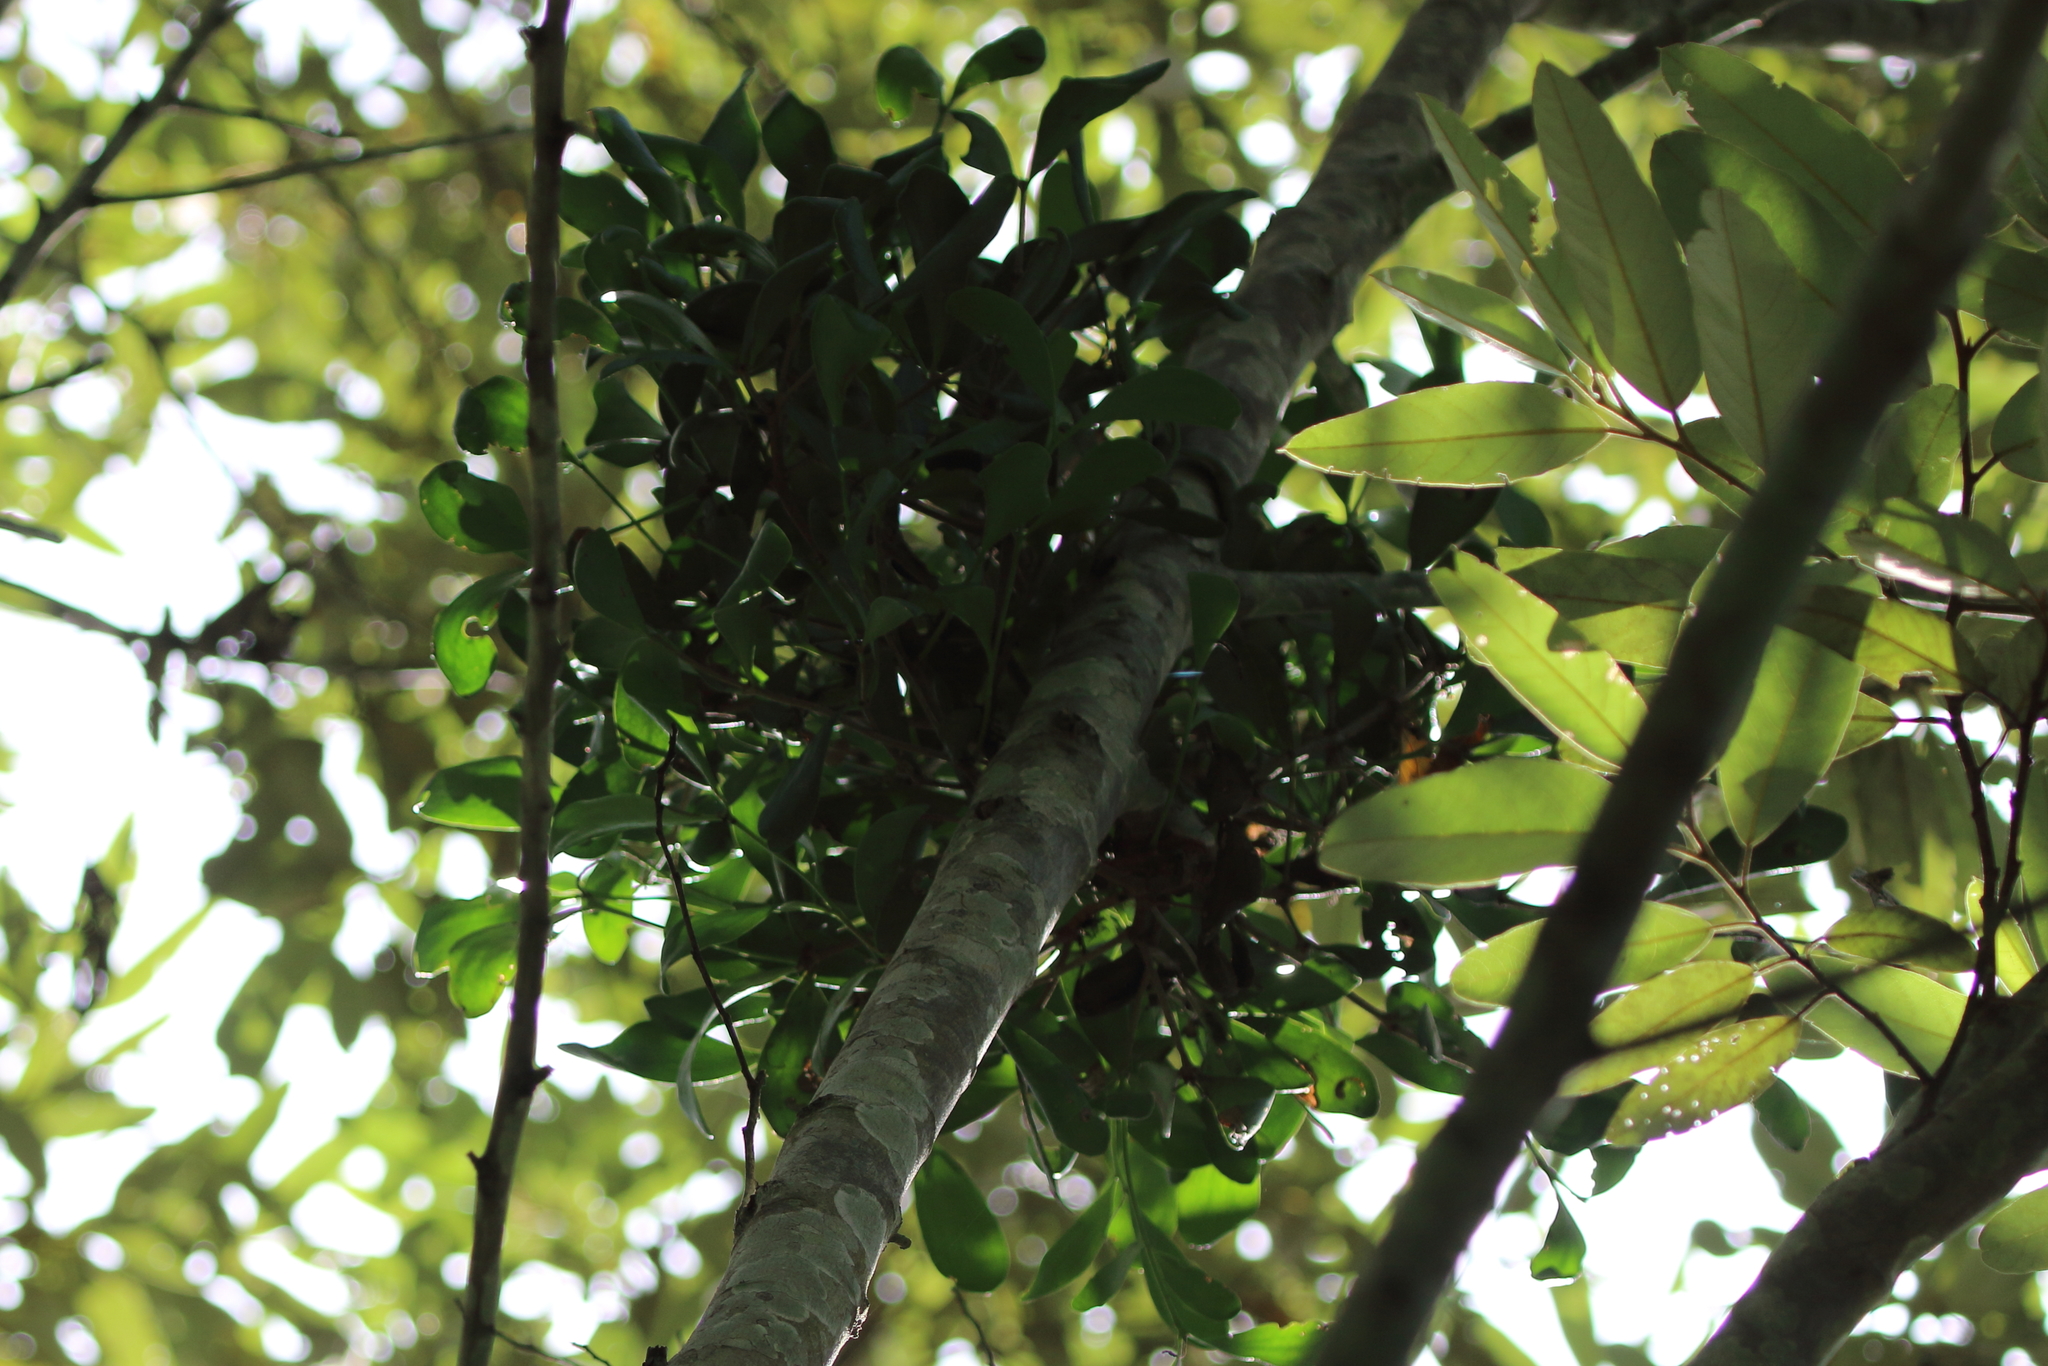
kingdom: Plantae
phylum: Tracheophyta
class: Magnoliopsida
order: Santalales
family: Loranthaceae
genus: Amyema
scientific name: Amyema conspicua
